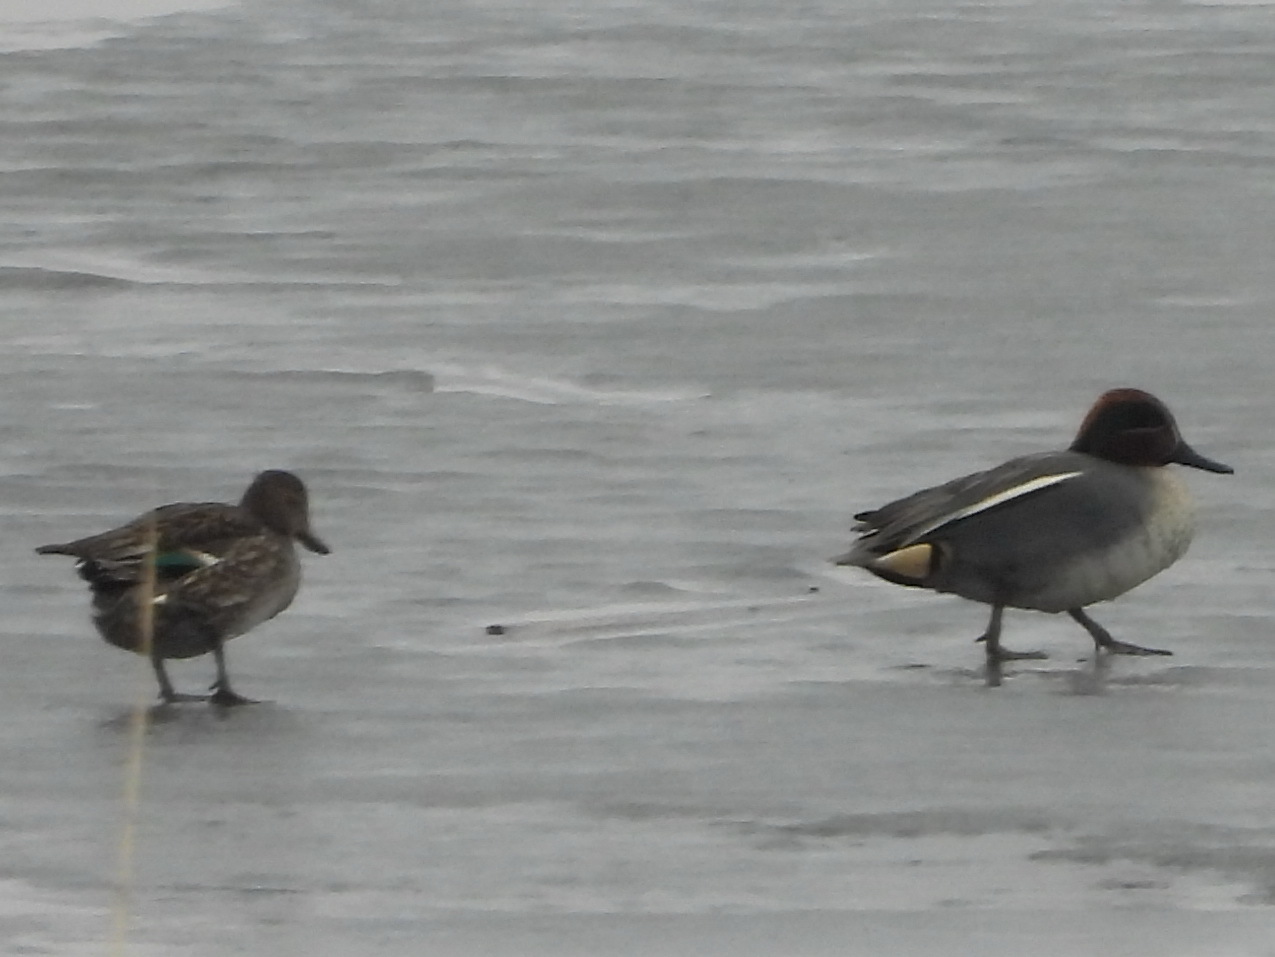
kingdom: Animalia
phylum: Chordata
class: Aves
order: Anseriformes
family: Anatidae
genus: Anas
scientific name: Anas crecca
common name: Eurasian teal
